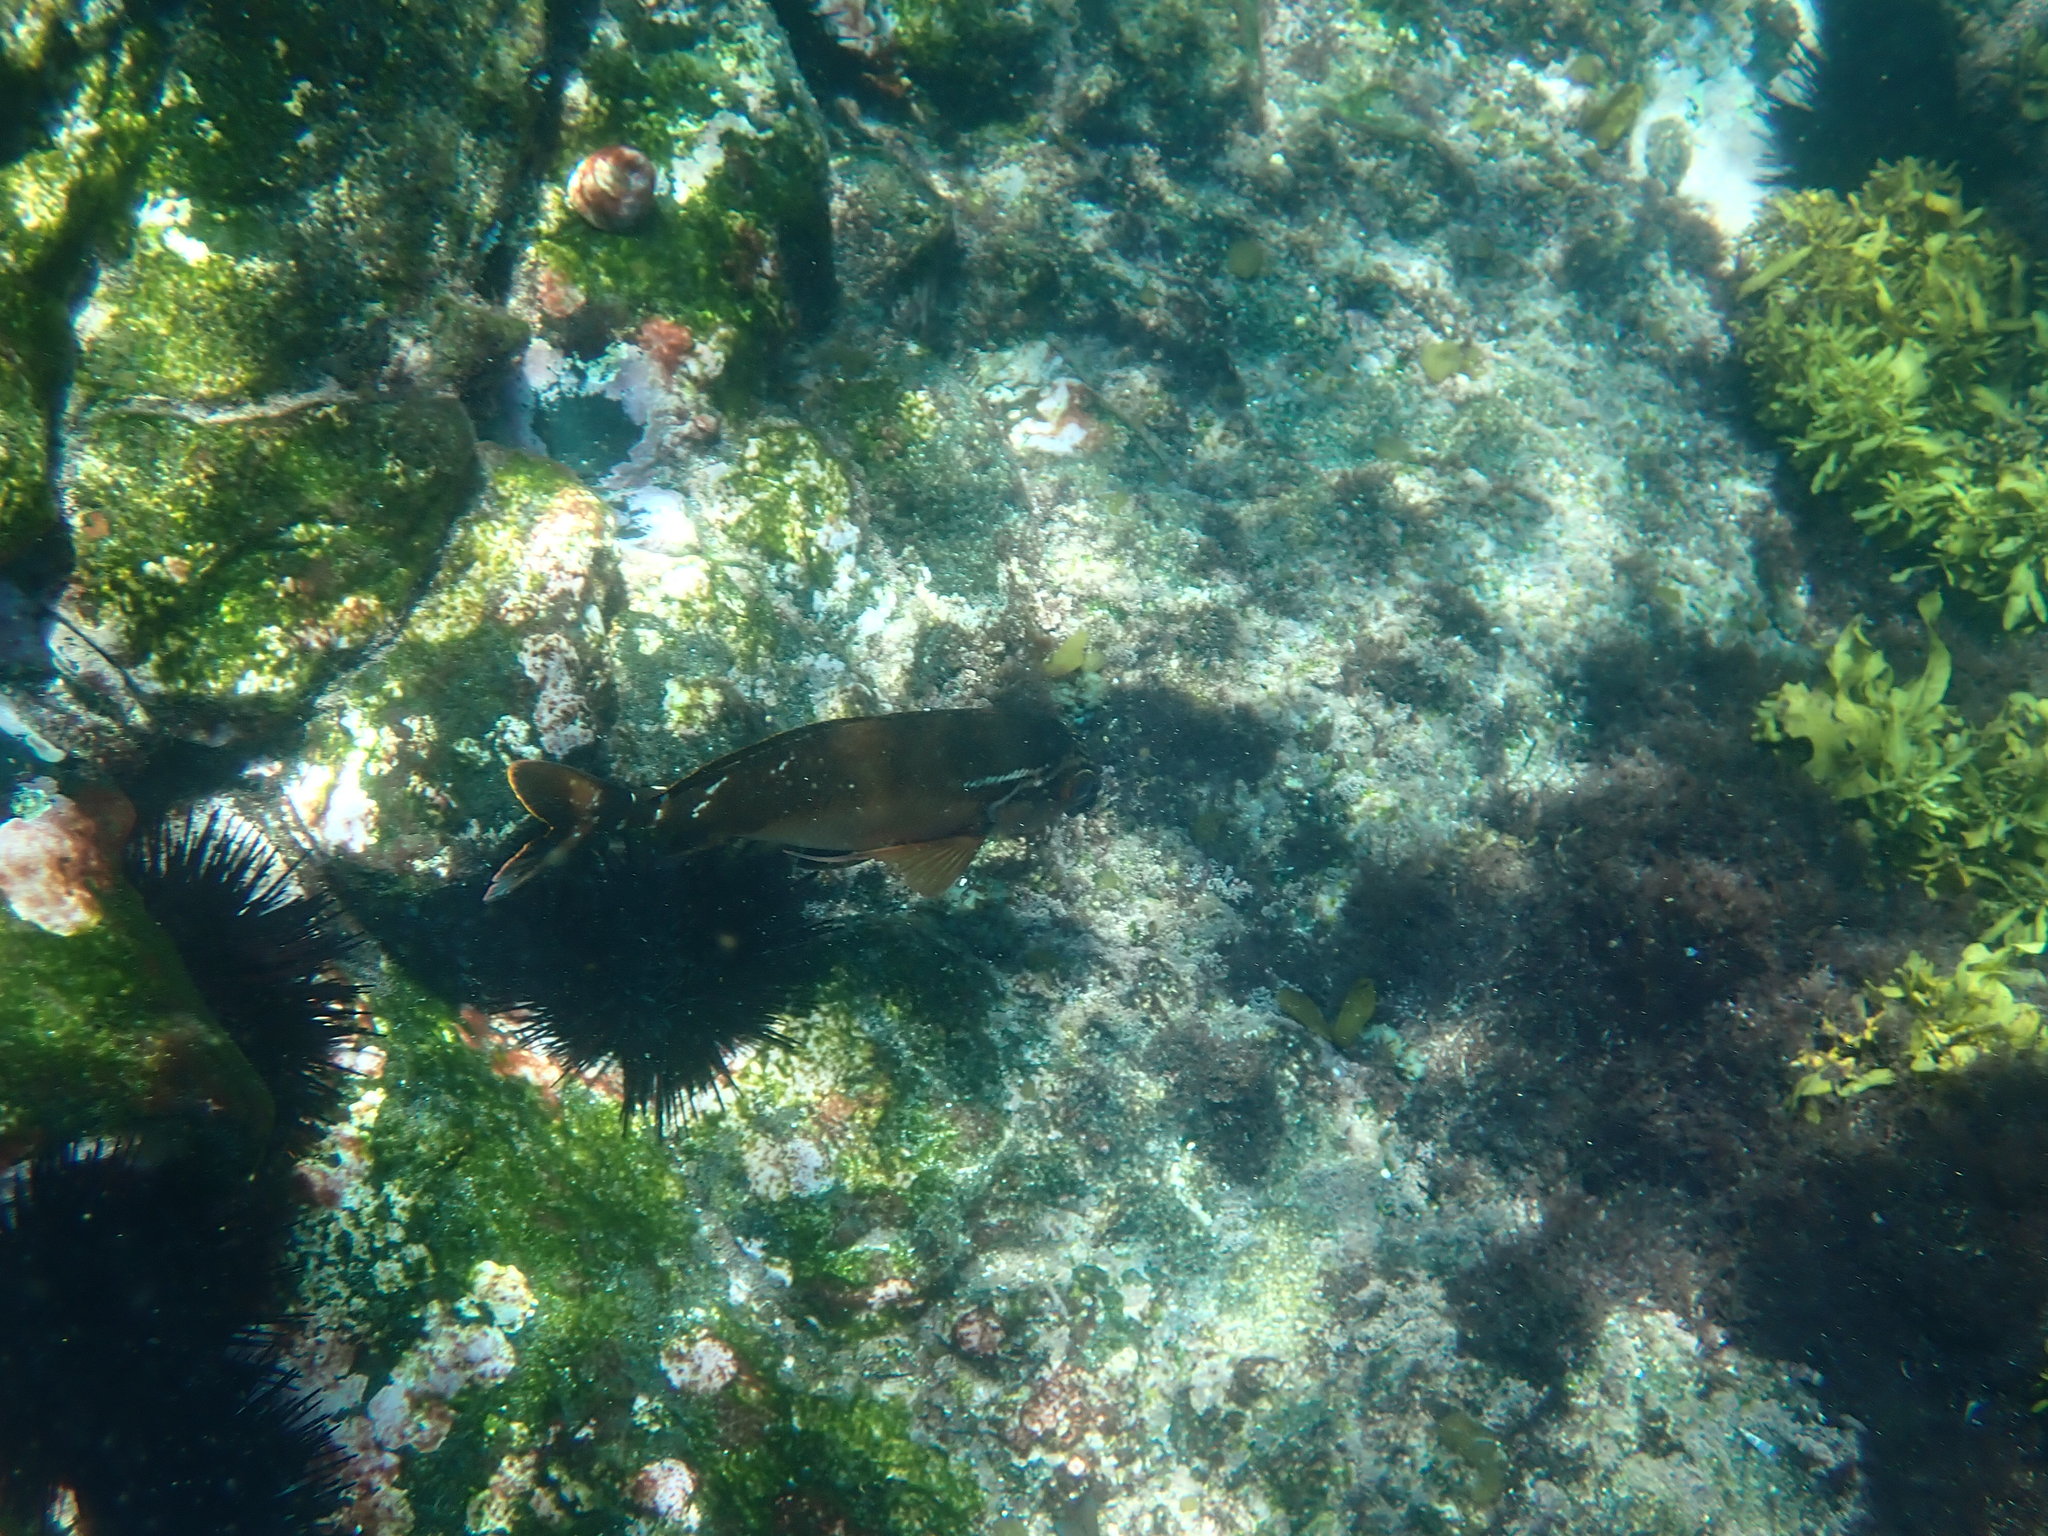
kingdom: Animalia
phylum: Chordata
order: Perciformes
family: Latridae
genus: Morwong
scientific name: Morwong fuscus
